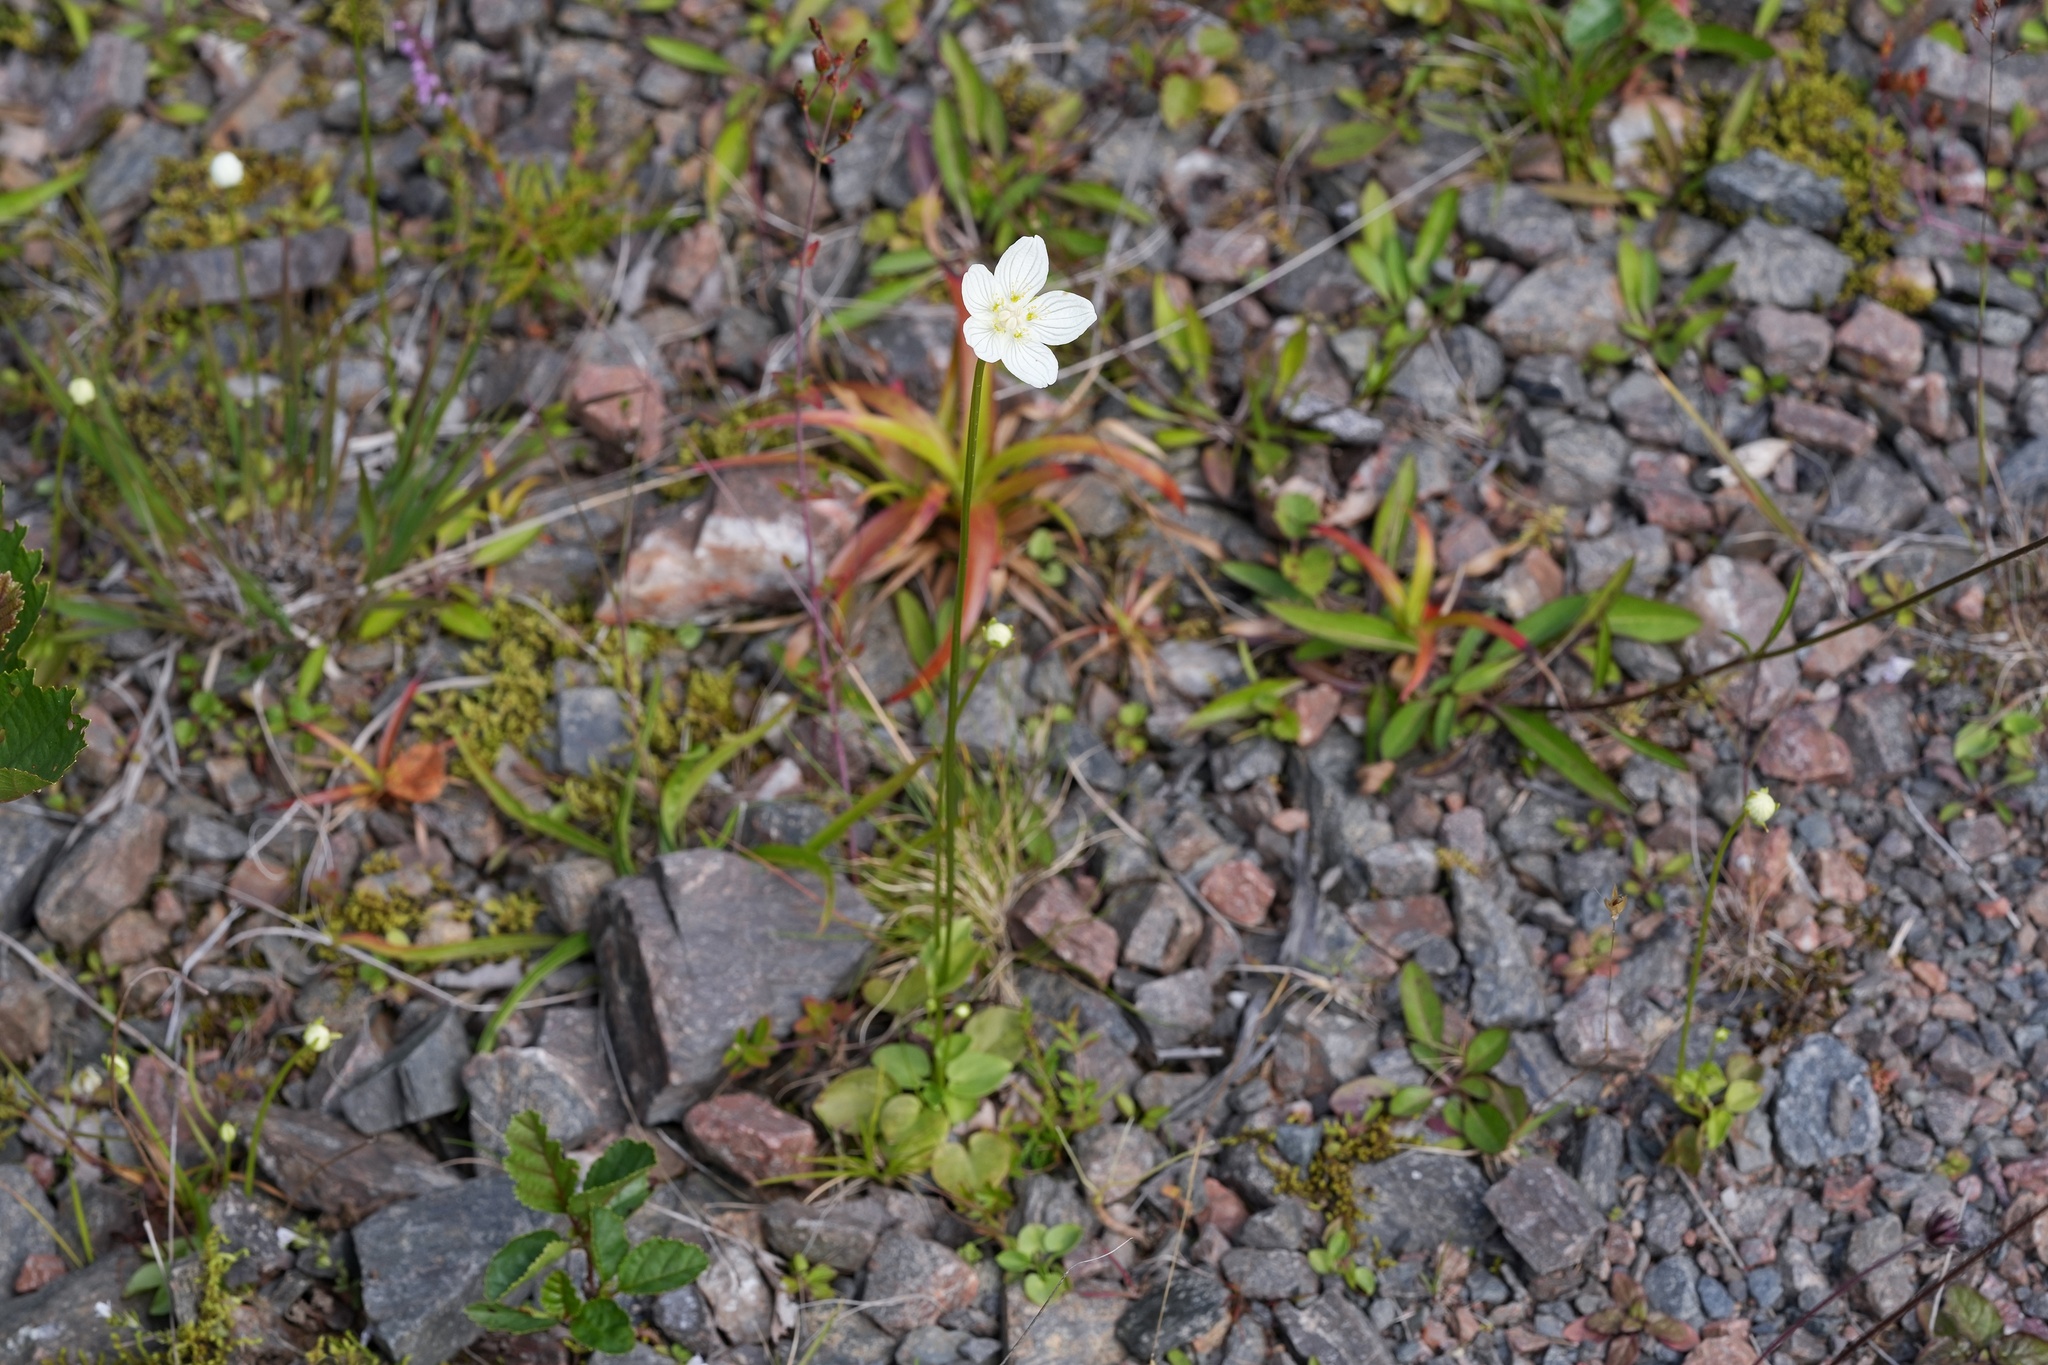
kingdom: Plantae
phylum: Tracheophyta
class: Magnoliopsida
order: Celastrales
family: Parnassiaceae
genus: Parnassia
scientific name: Parnassia palustris
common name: Grass-of-parnassus
